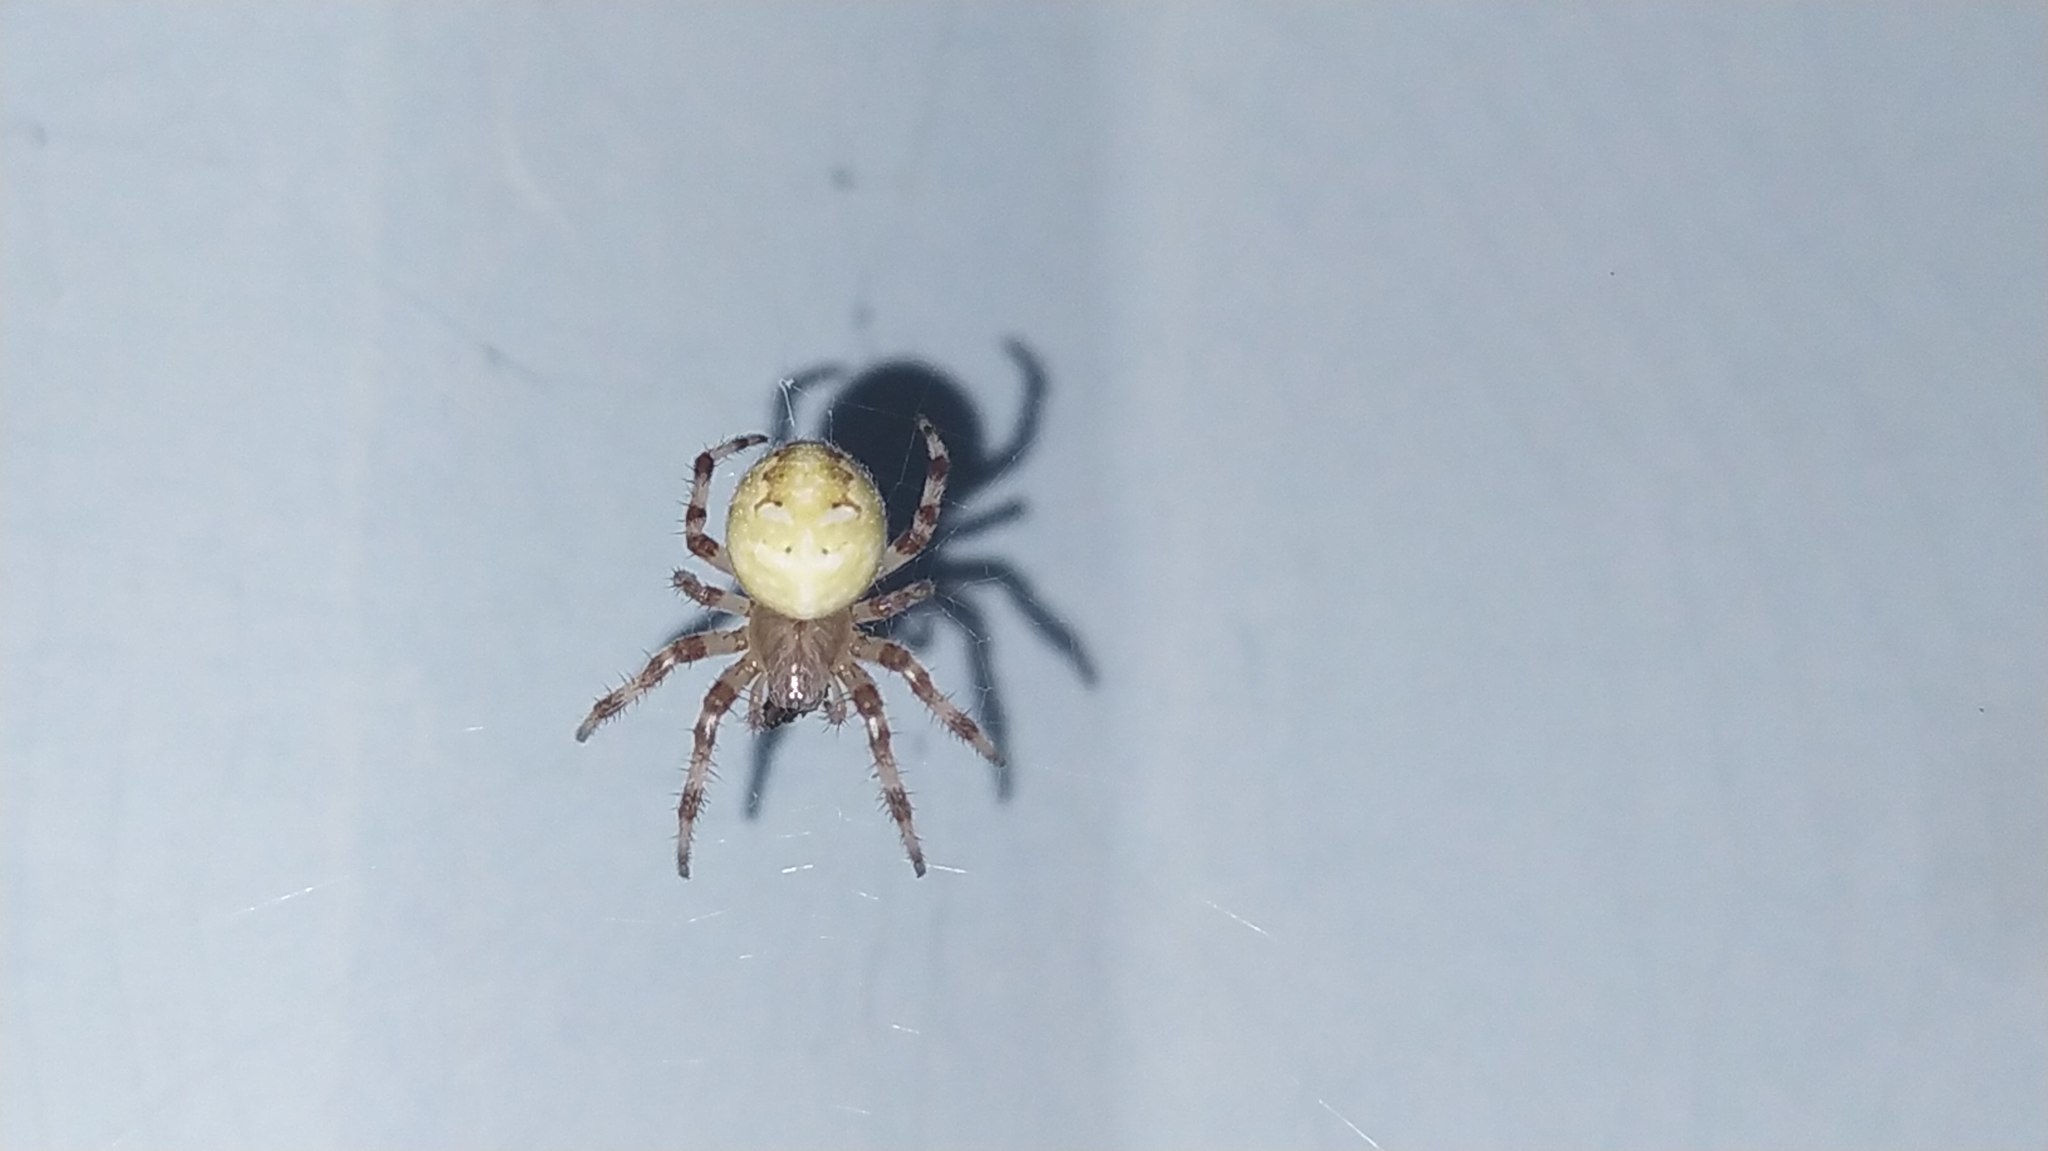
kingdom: Animalia
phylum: Arthropoda
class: Arachnida
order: Araneae
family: Araneidae
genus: Araneus
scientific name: Araneus quadratus
